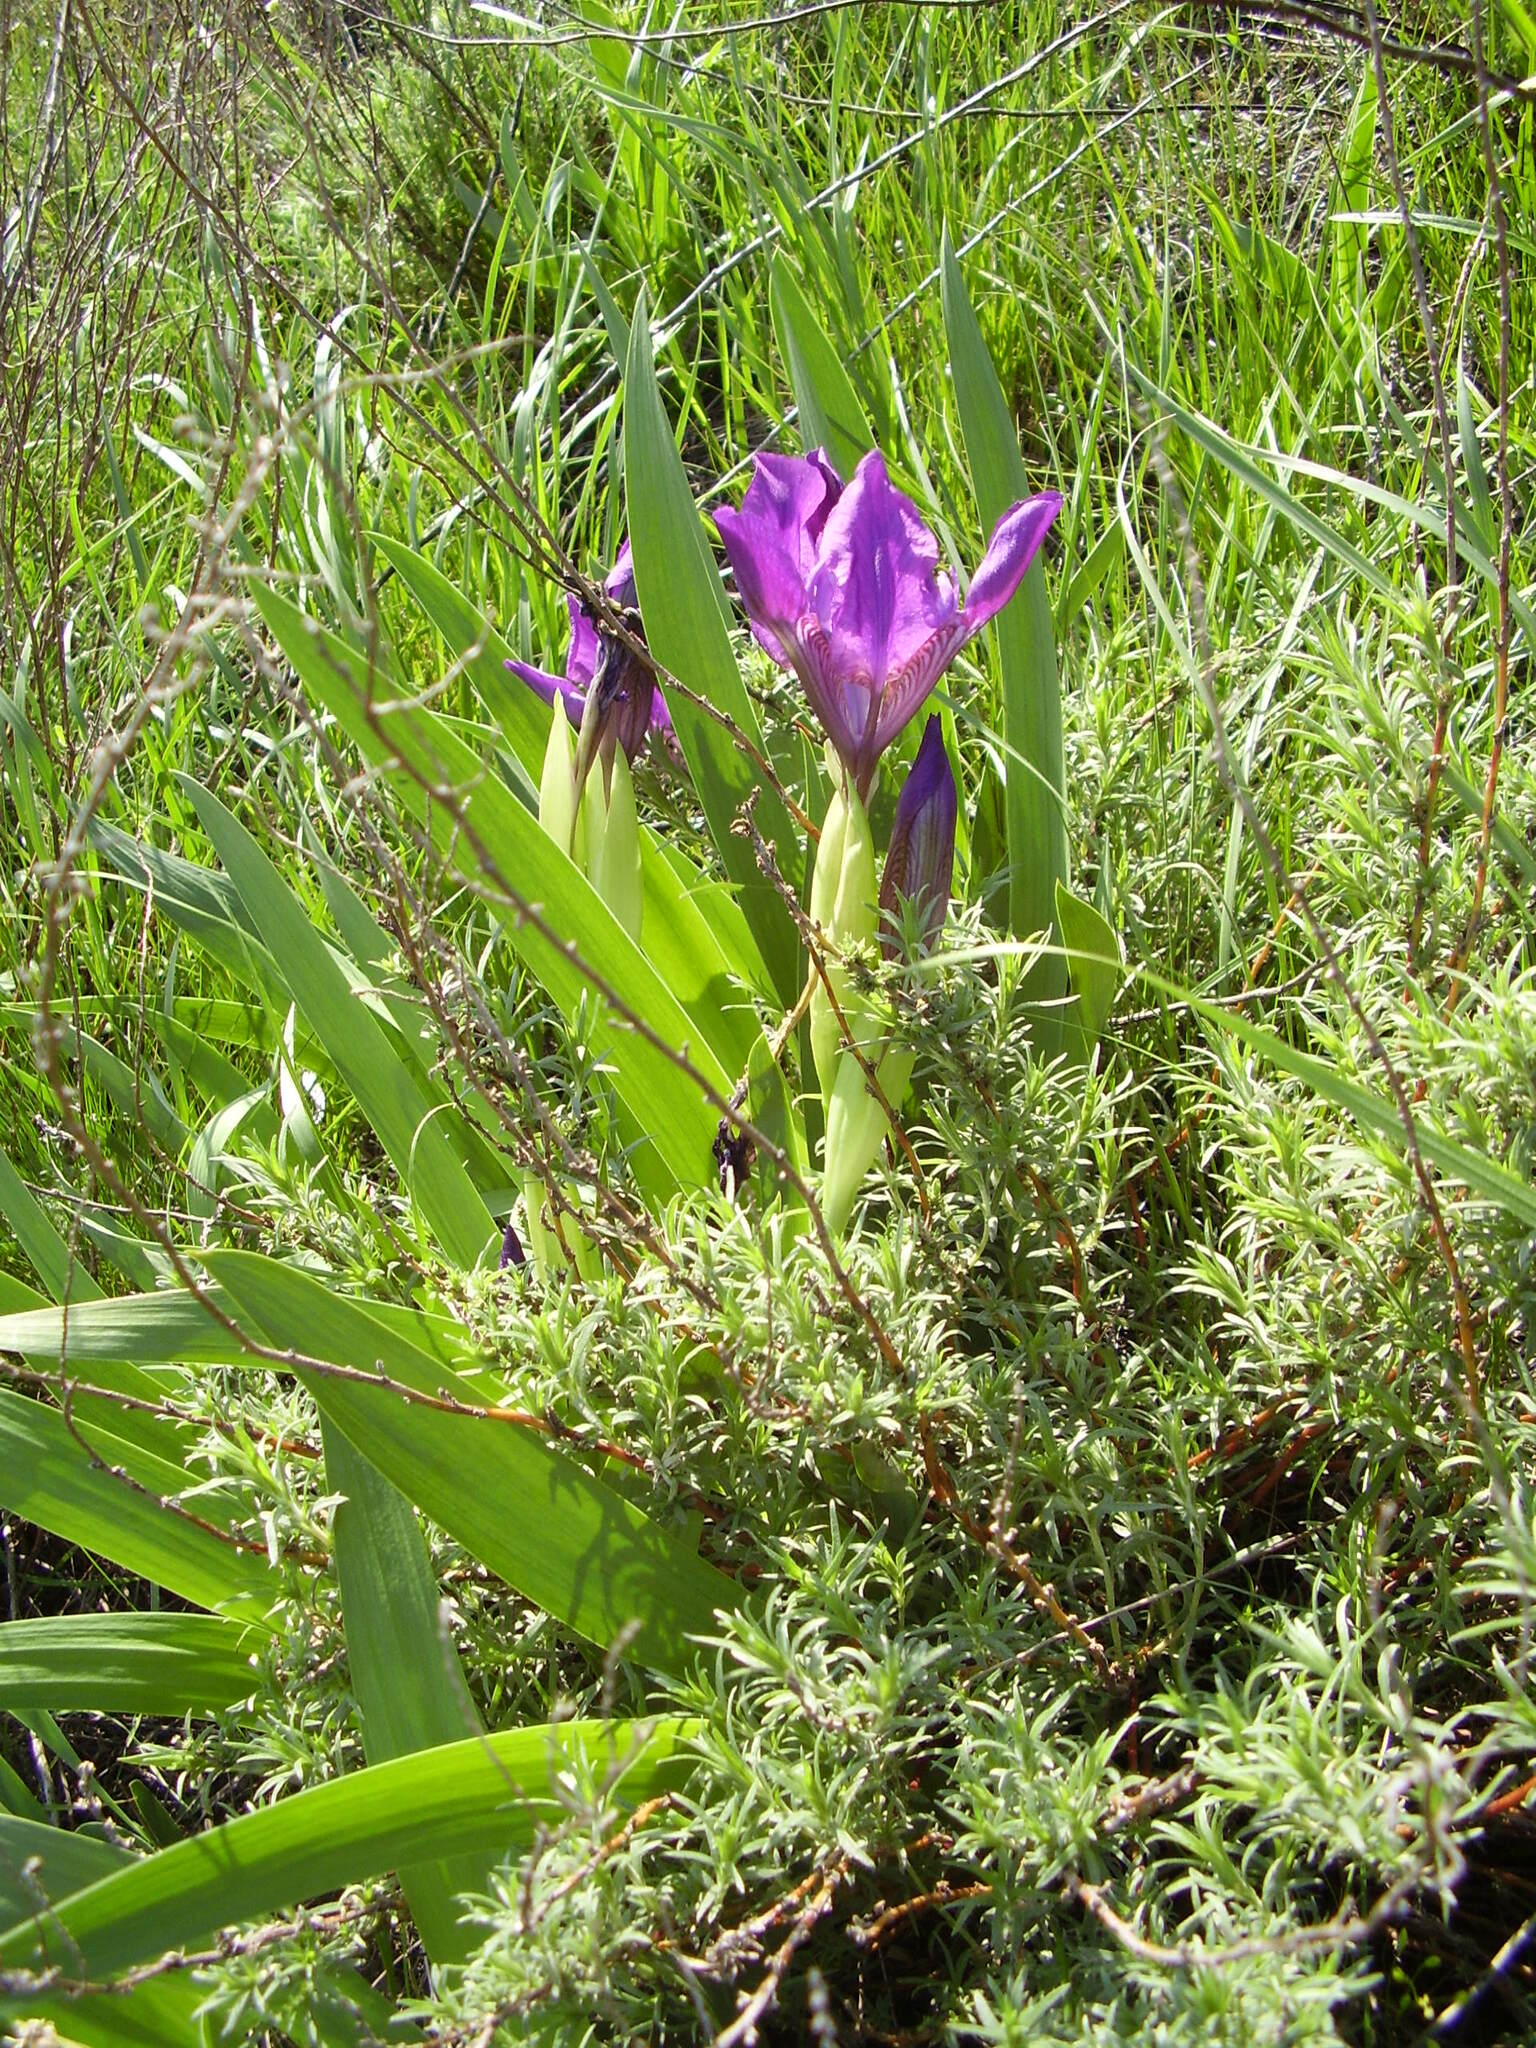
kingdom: Plantae
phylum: Tracheophyta
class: Liliopsida
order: Asparagales
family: Iridaceae
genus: Iris
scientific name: Iris aphylla
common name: Stool iris
